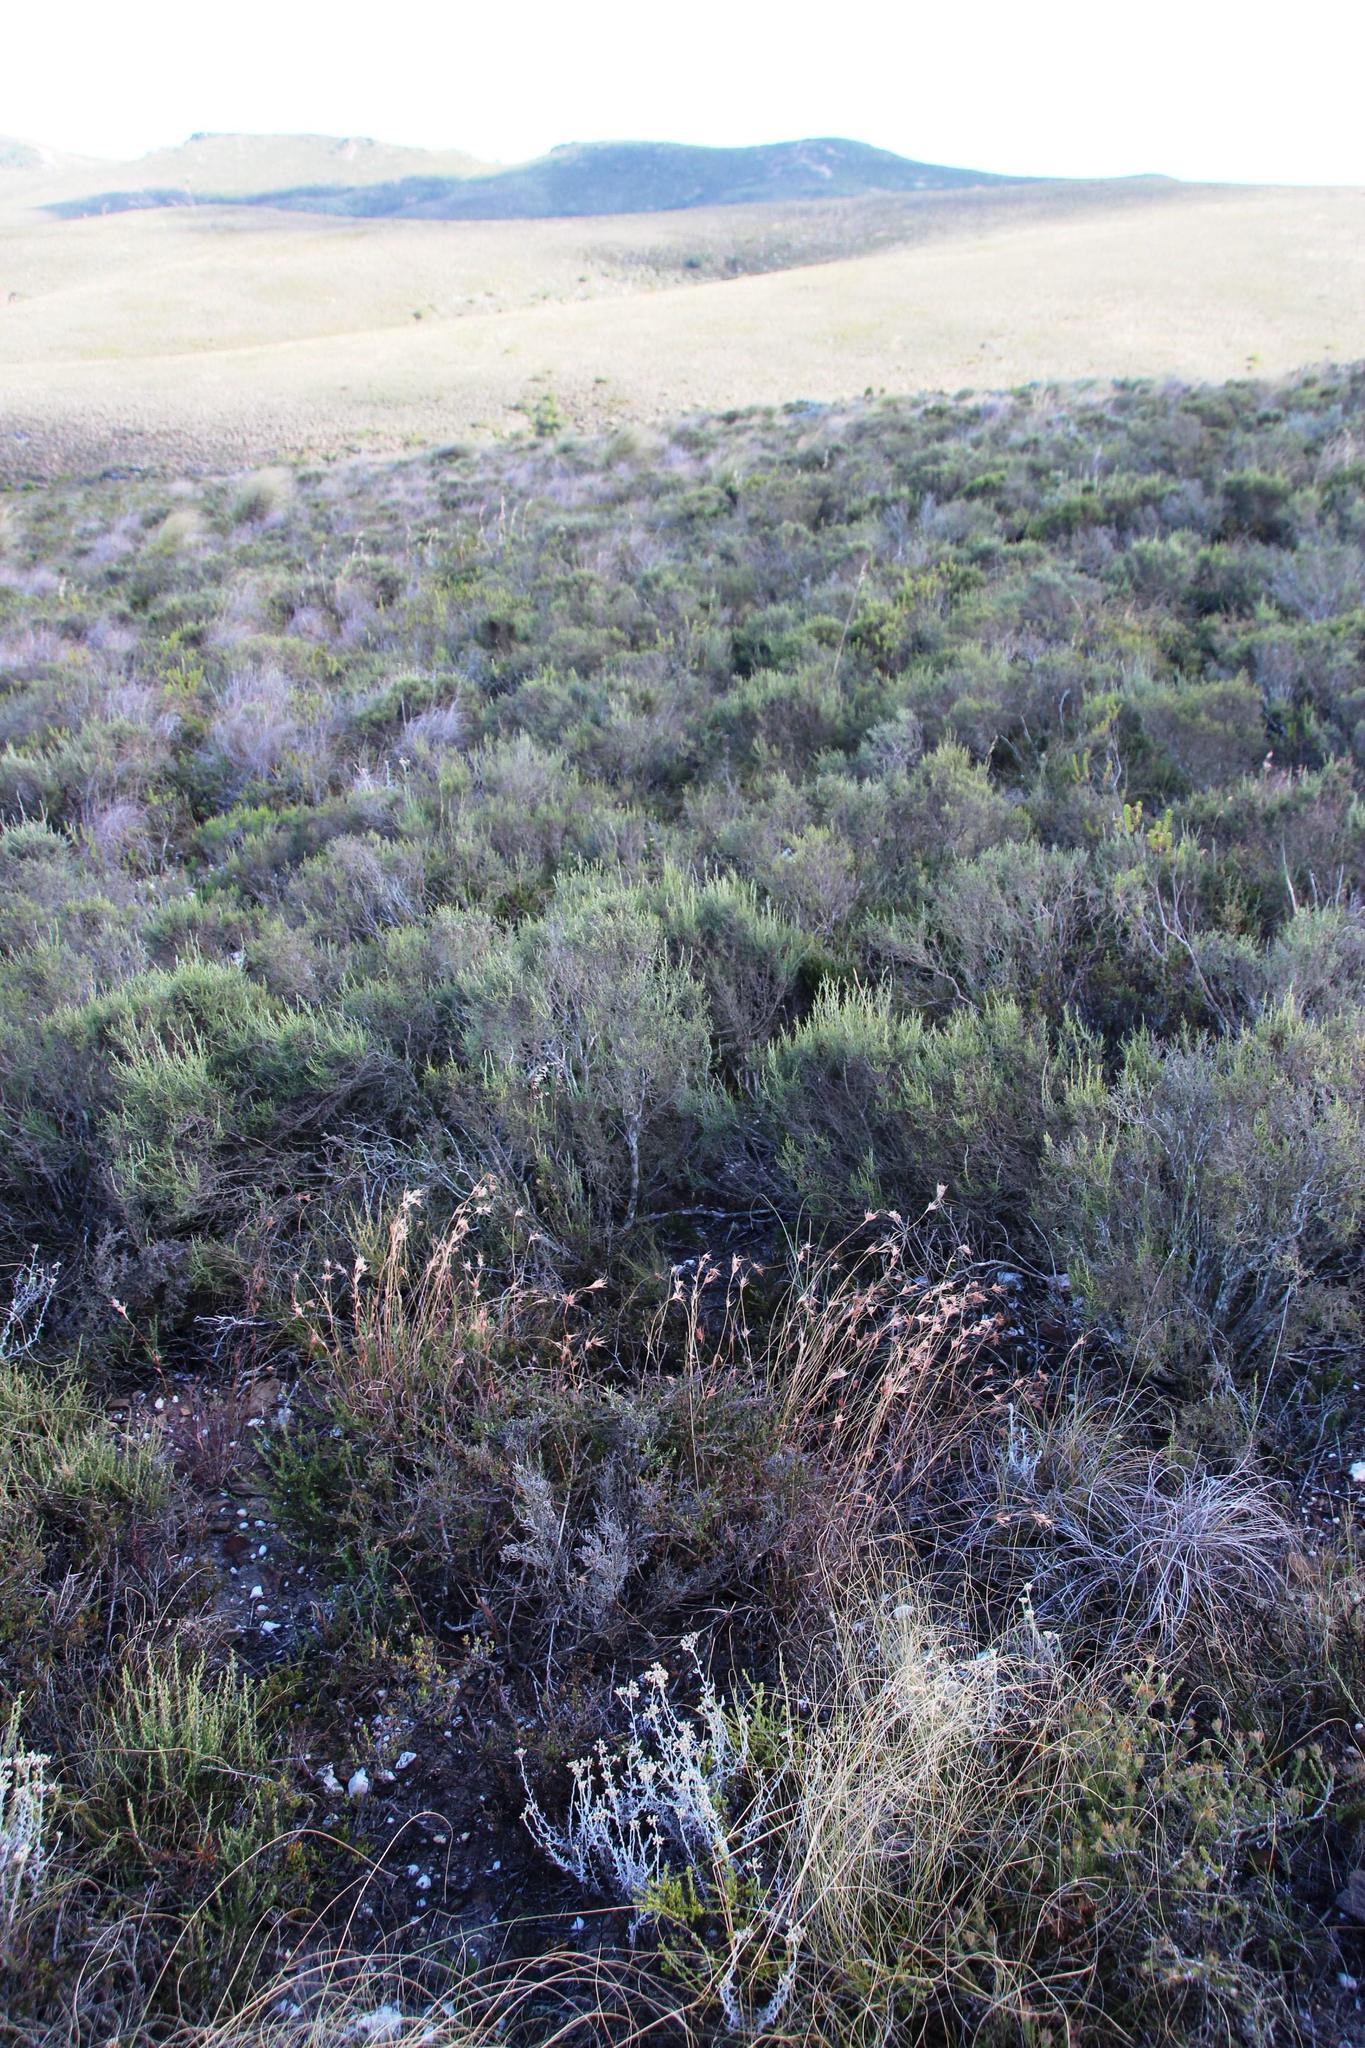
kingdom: Plantae
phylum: Tracheophyta
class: Liliopsida
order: Poales
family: Poaceae
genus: Themeda
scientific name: Themeda triandra
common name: Kangaroo grass
